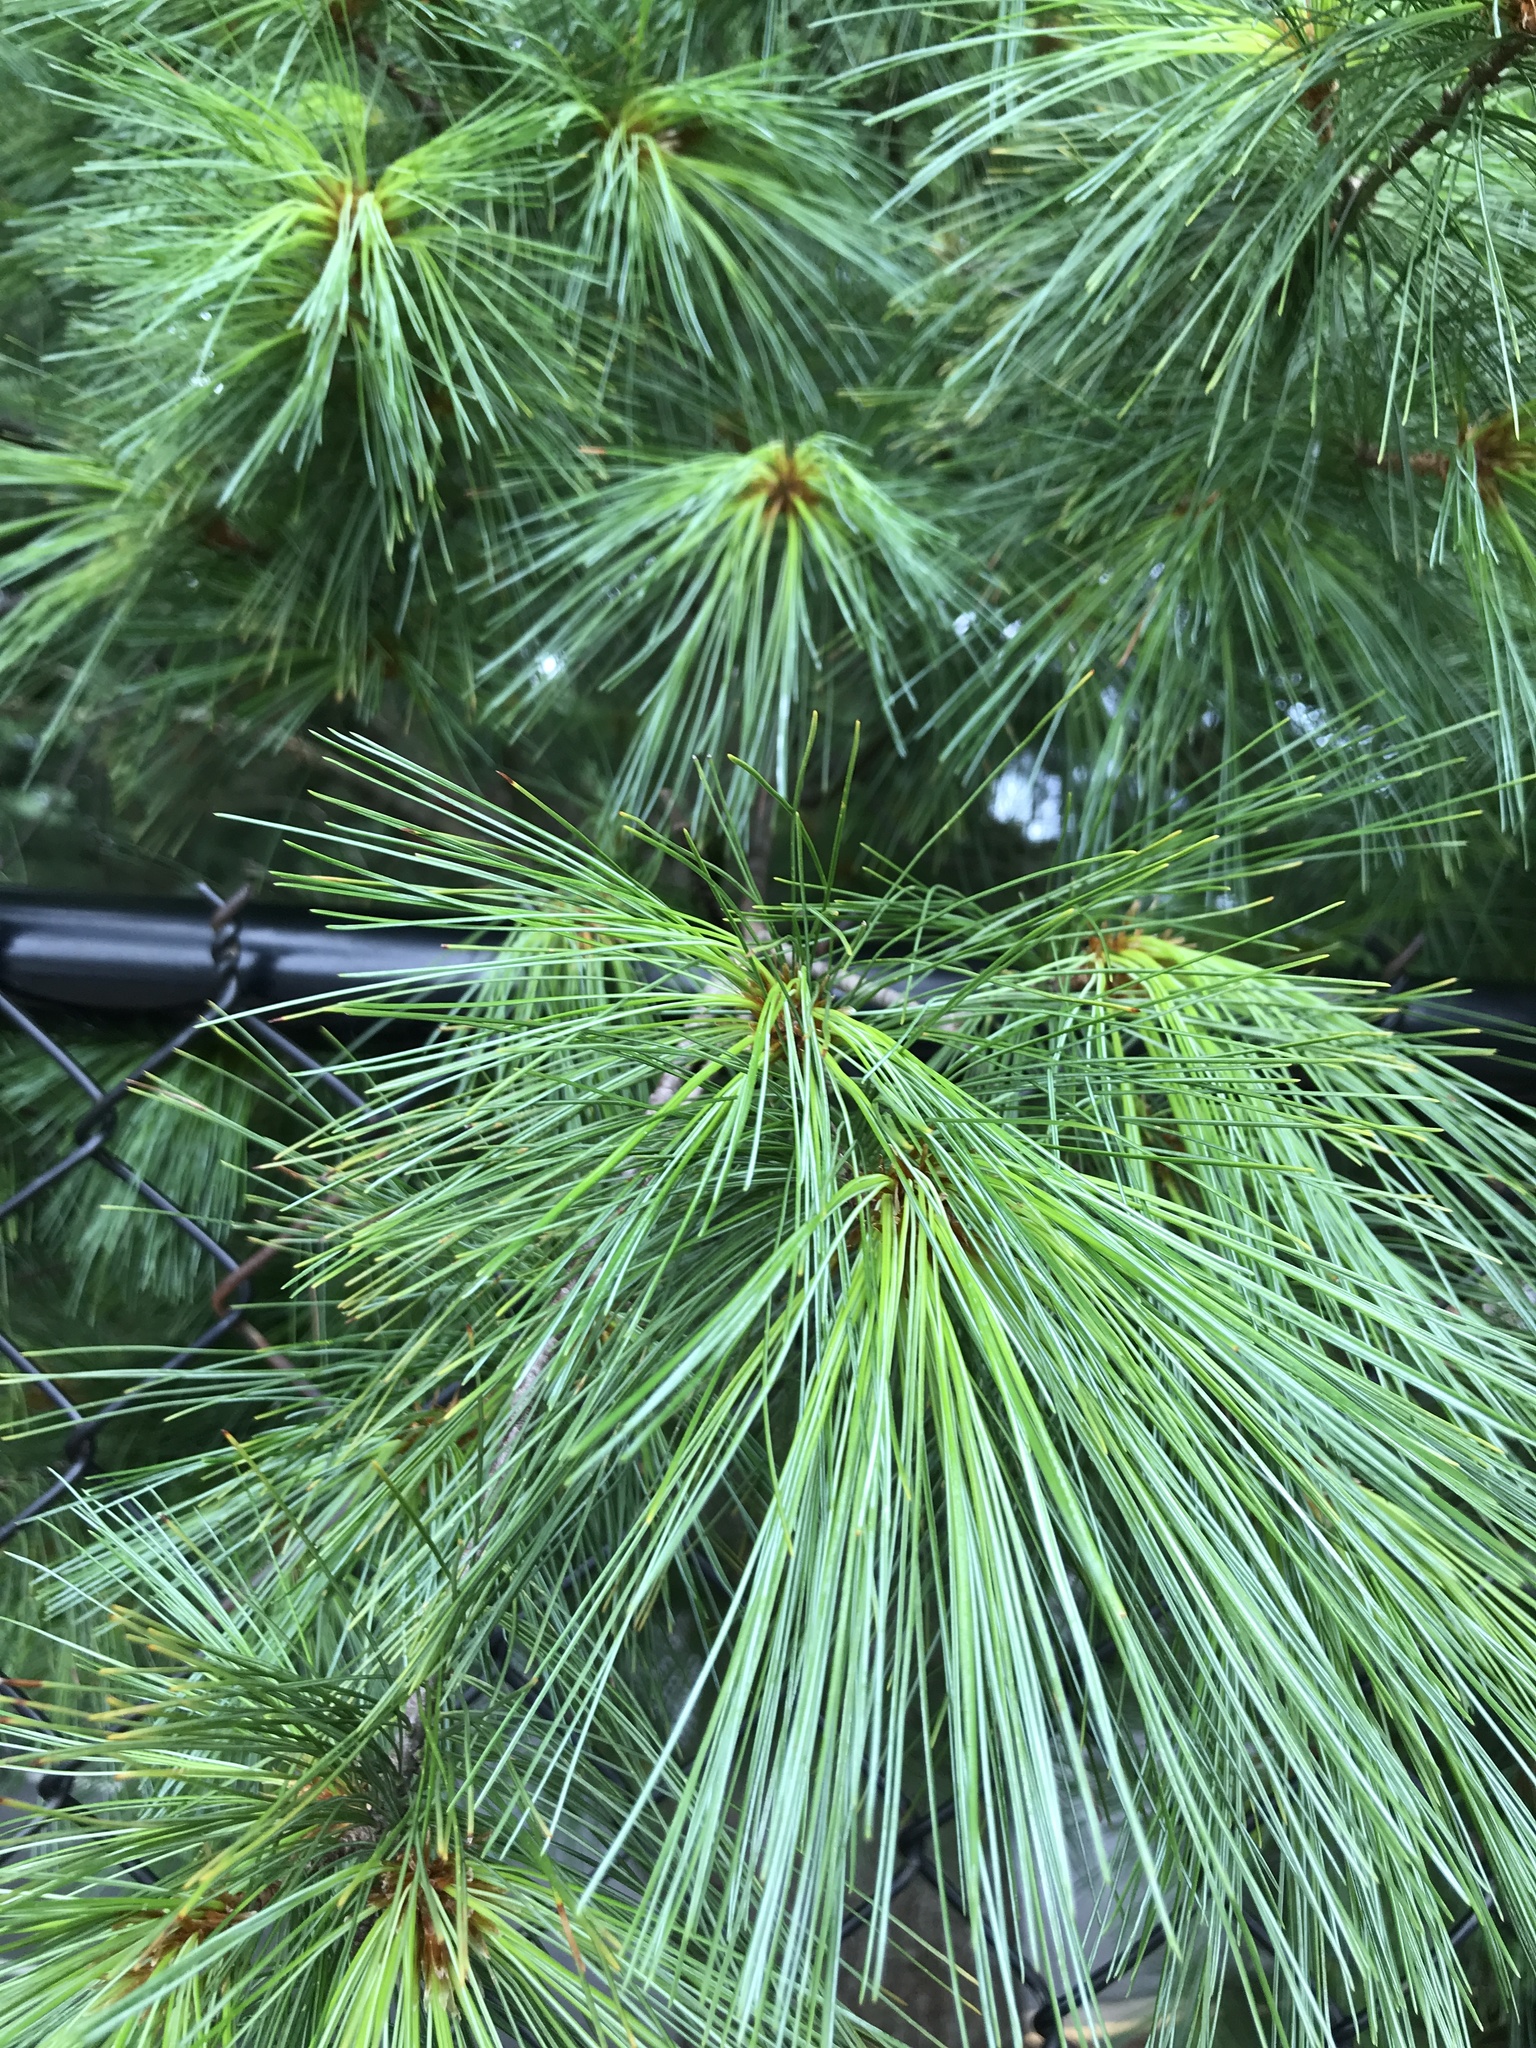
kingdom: Plantae
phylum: Tracheophyta
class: Pinopsida
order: Pinales
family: Pinaceae
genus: Pinus
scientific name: Pinus strobus
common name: Weymouth pine
